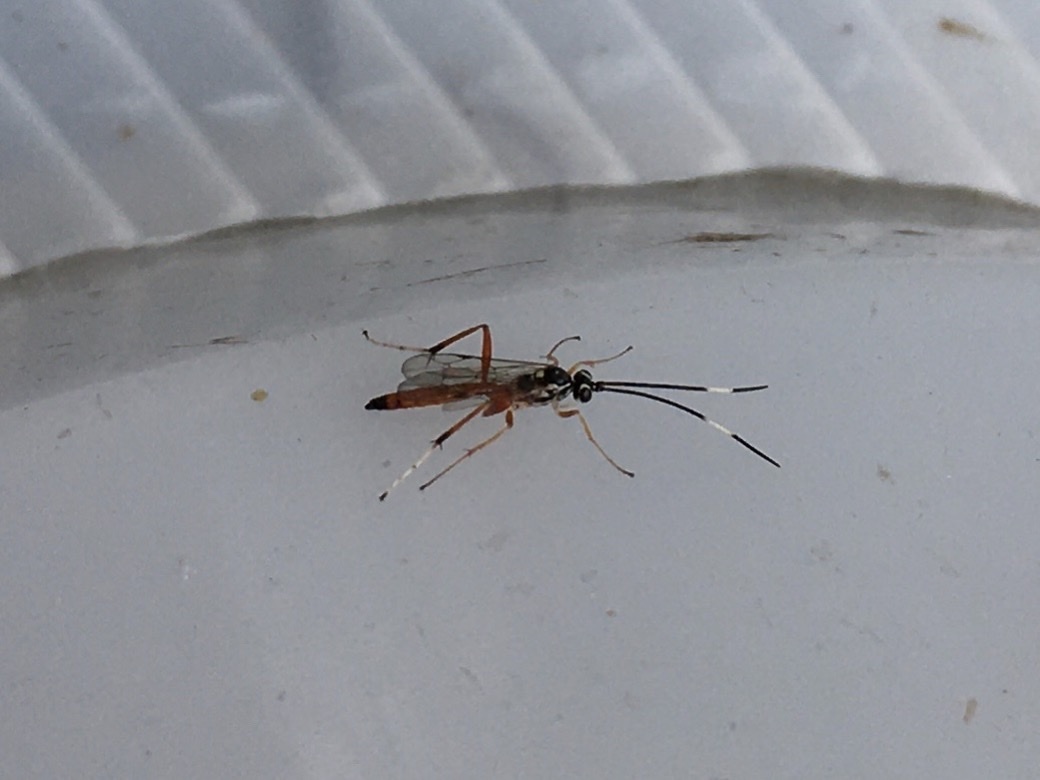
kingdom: Animalia
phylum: Arthropoda
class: Insecta
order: Hymenoptera
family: Ichneumonidae
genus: Ischnus
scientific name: Ischnus inquisitorius
